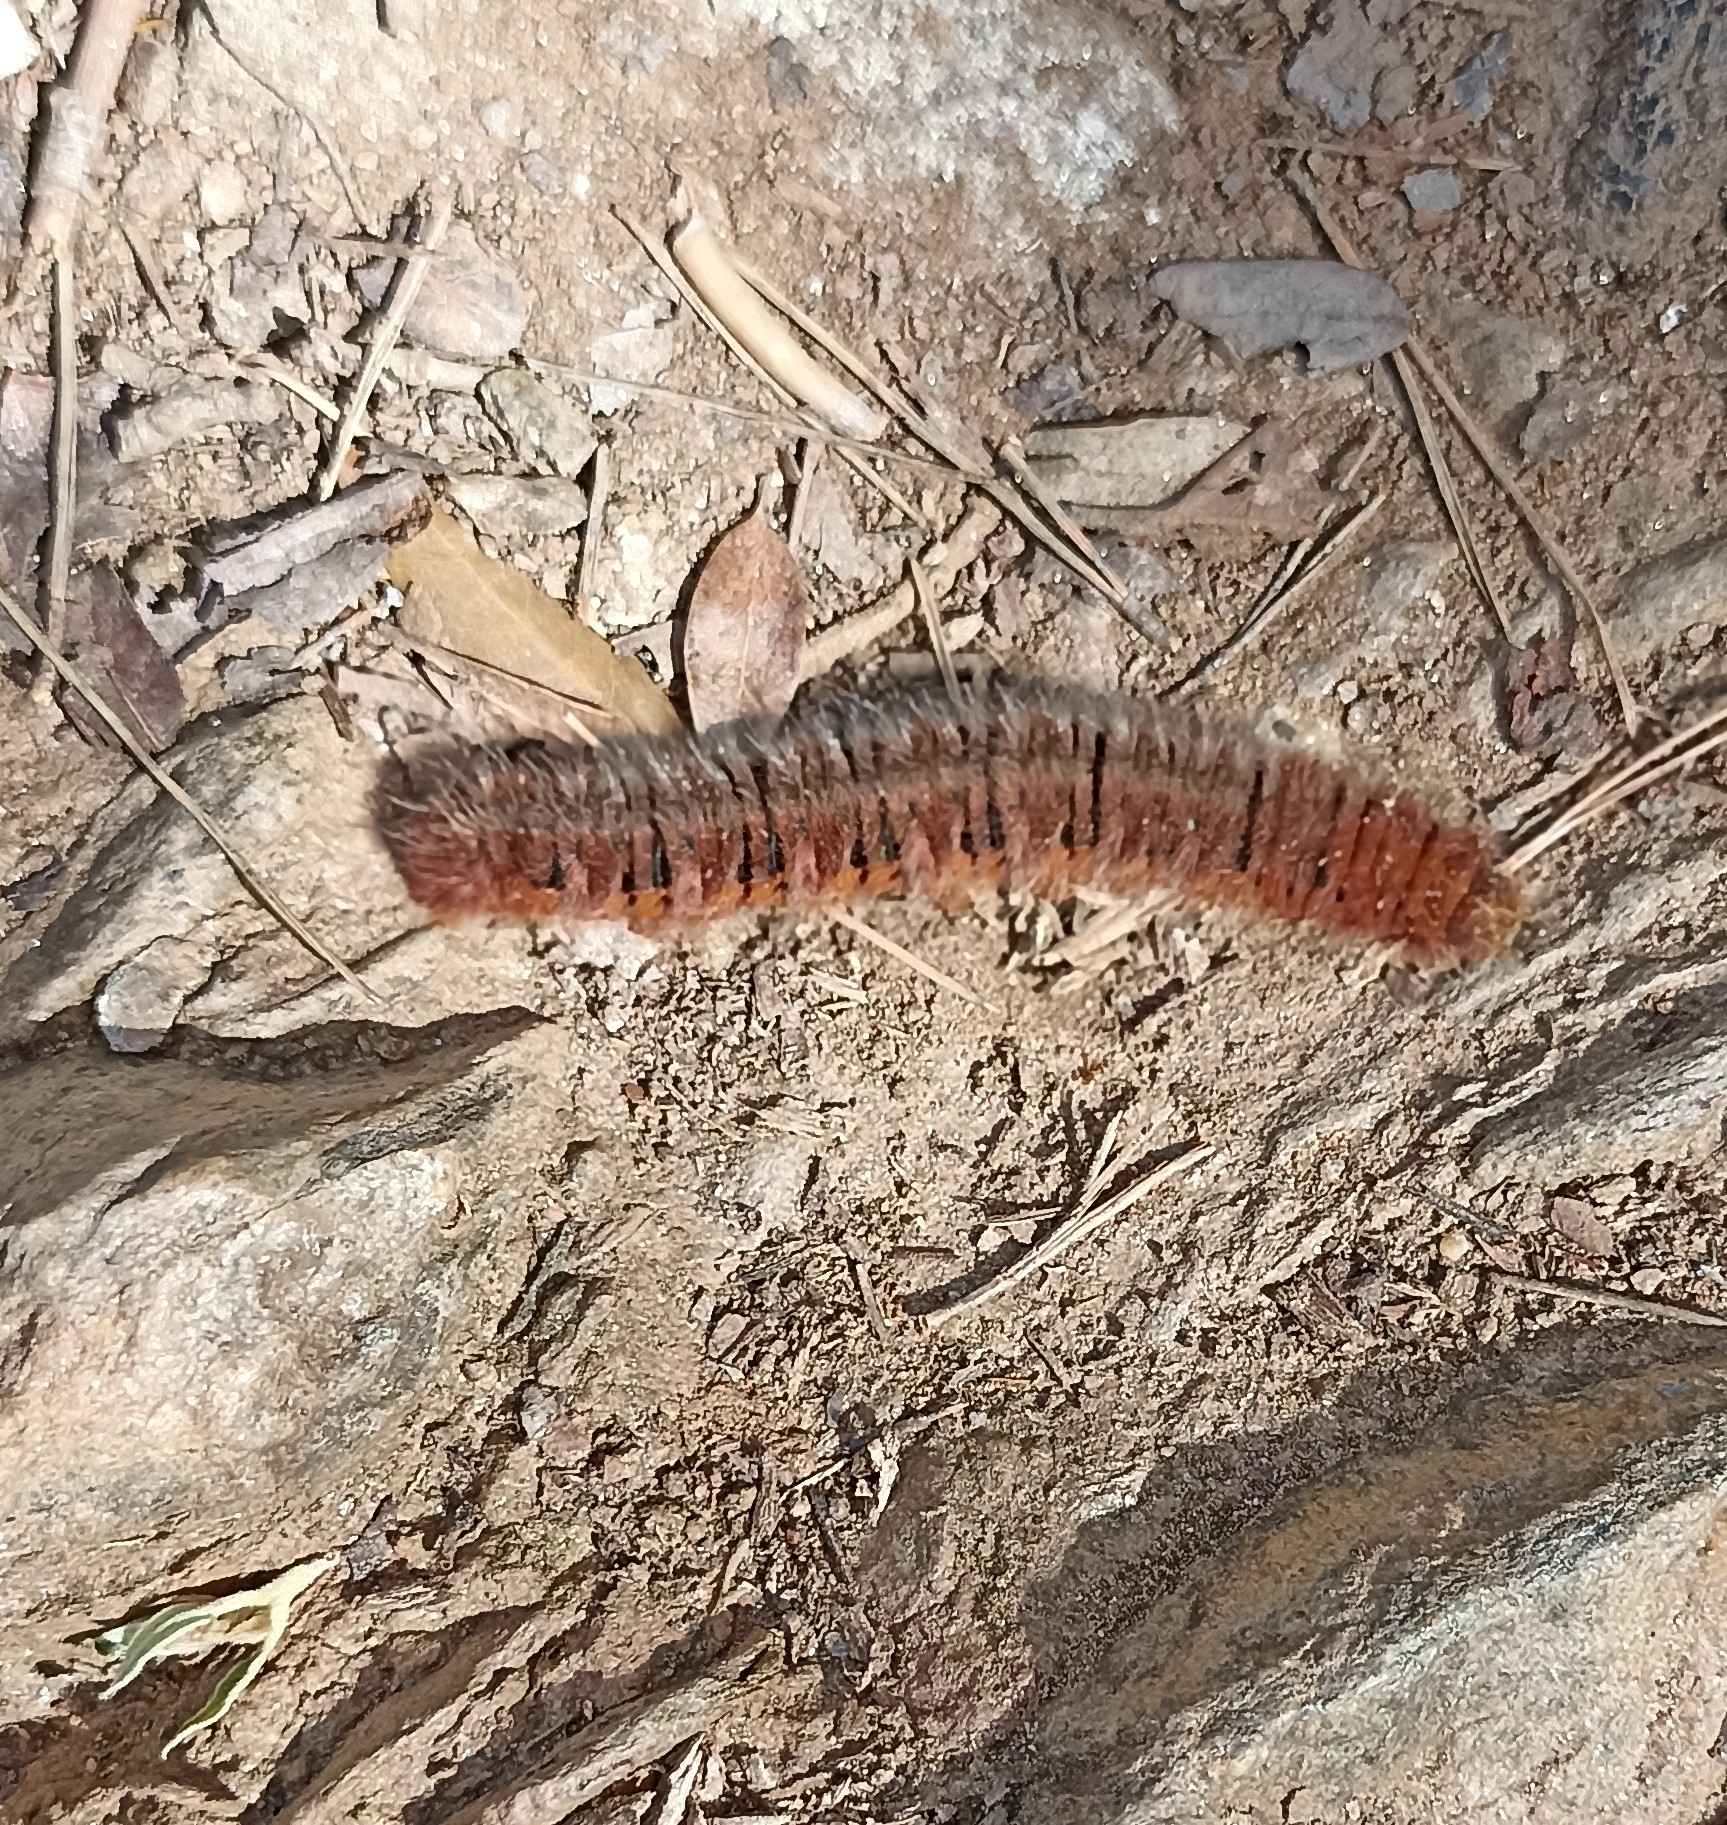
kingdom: Animalia
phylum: Arthropoda
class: Insecta
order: Lepidoptera
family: Lasiocampidae
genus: Lasiocampa
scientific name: Lasiocampa quercus
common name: Oak eggar
